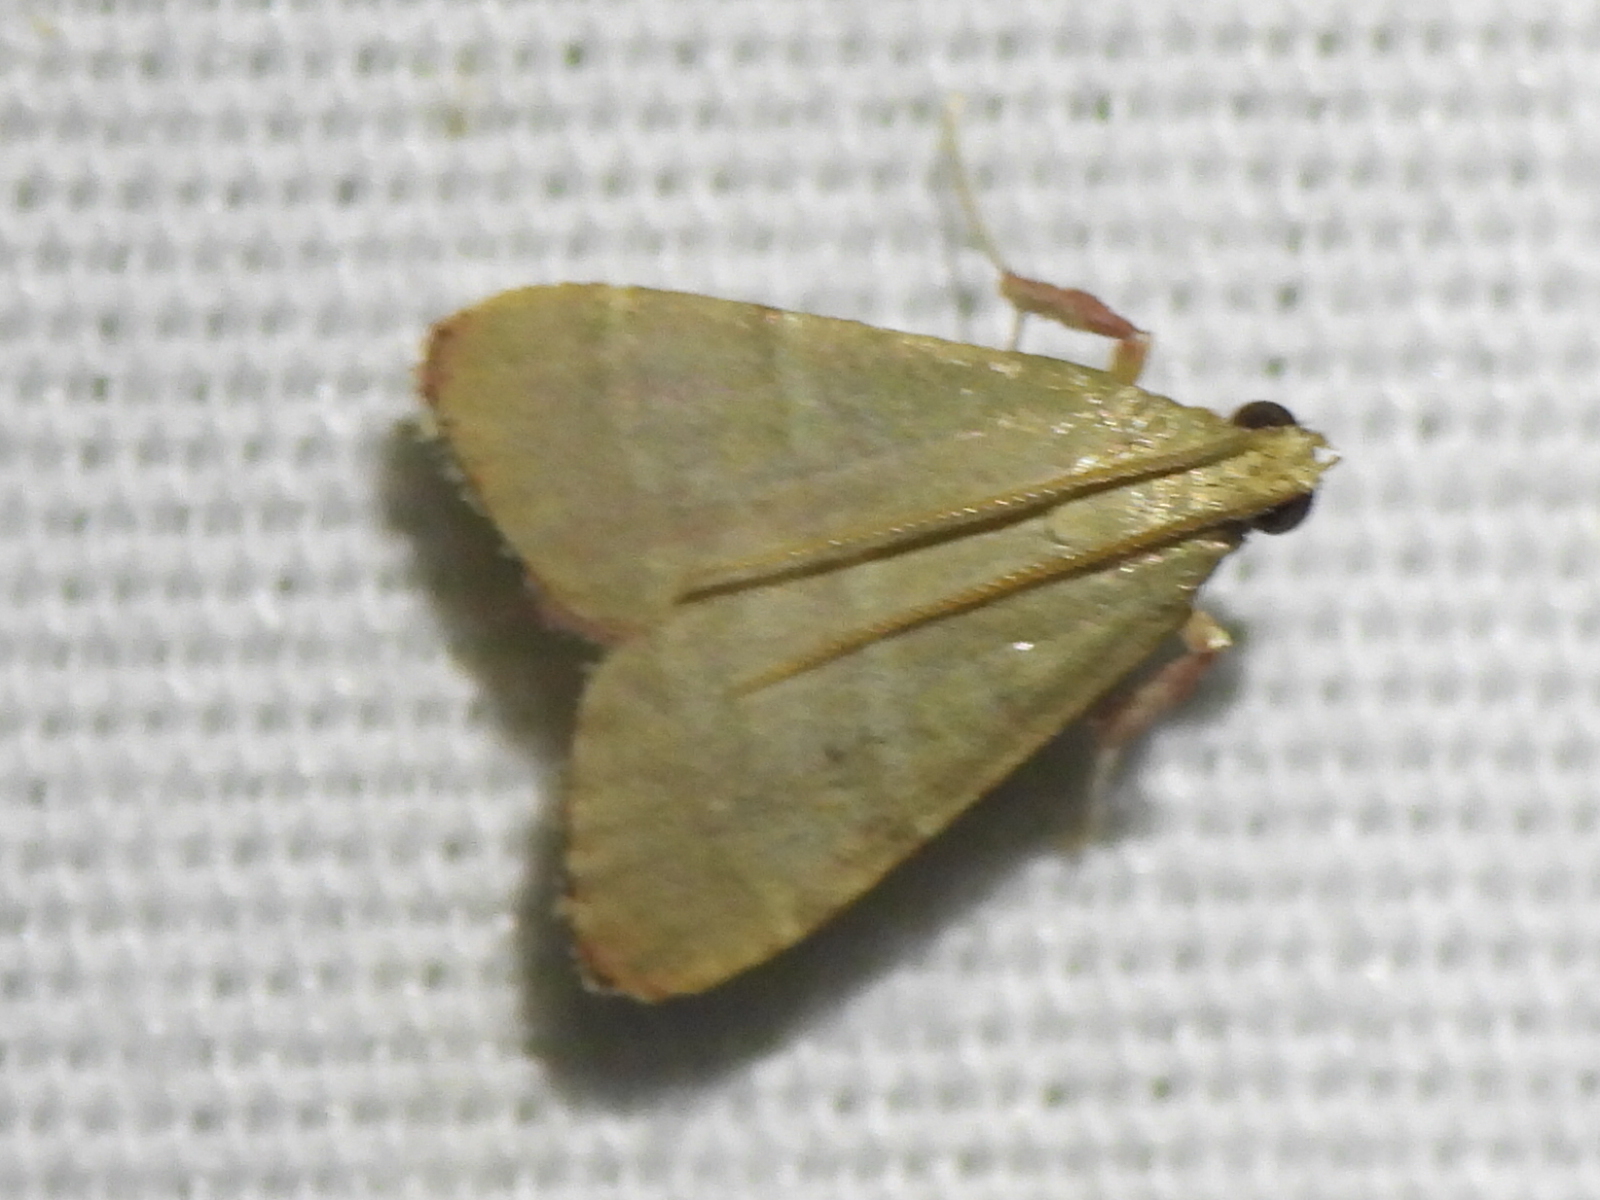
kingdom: Animalia
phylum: Arthropoda
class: Insecta
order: Lepidoptera
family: Pyralidae
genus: Arta
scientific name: Arta olivalis
